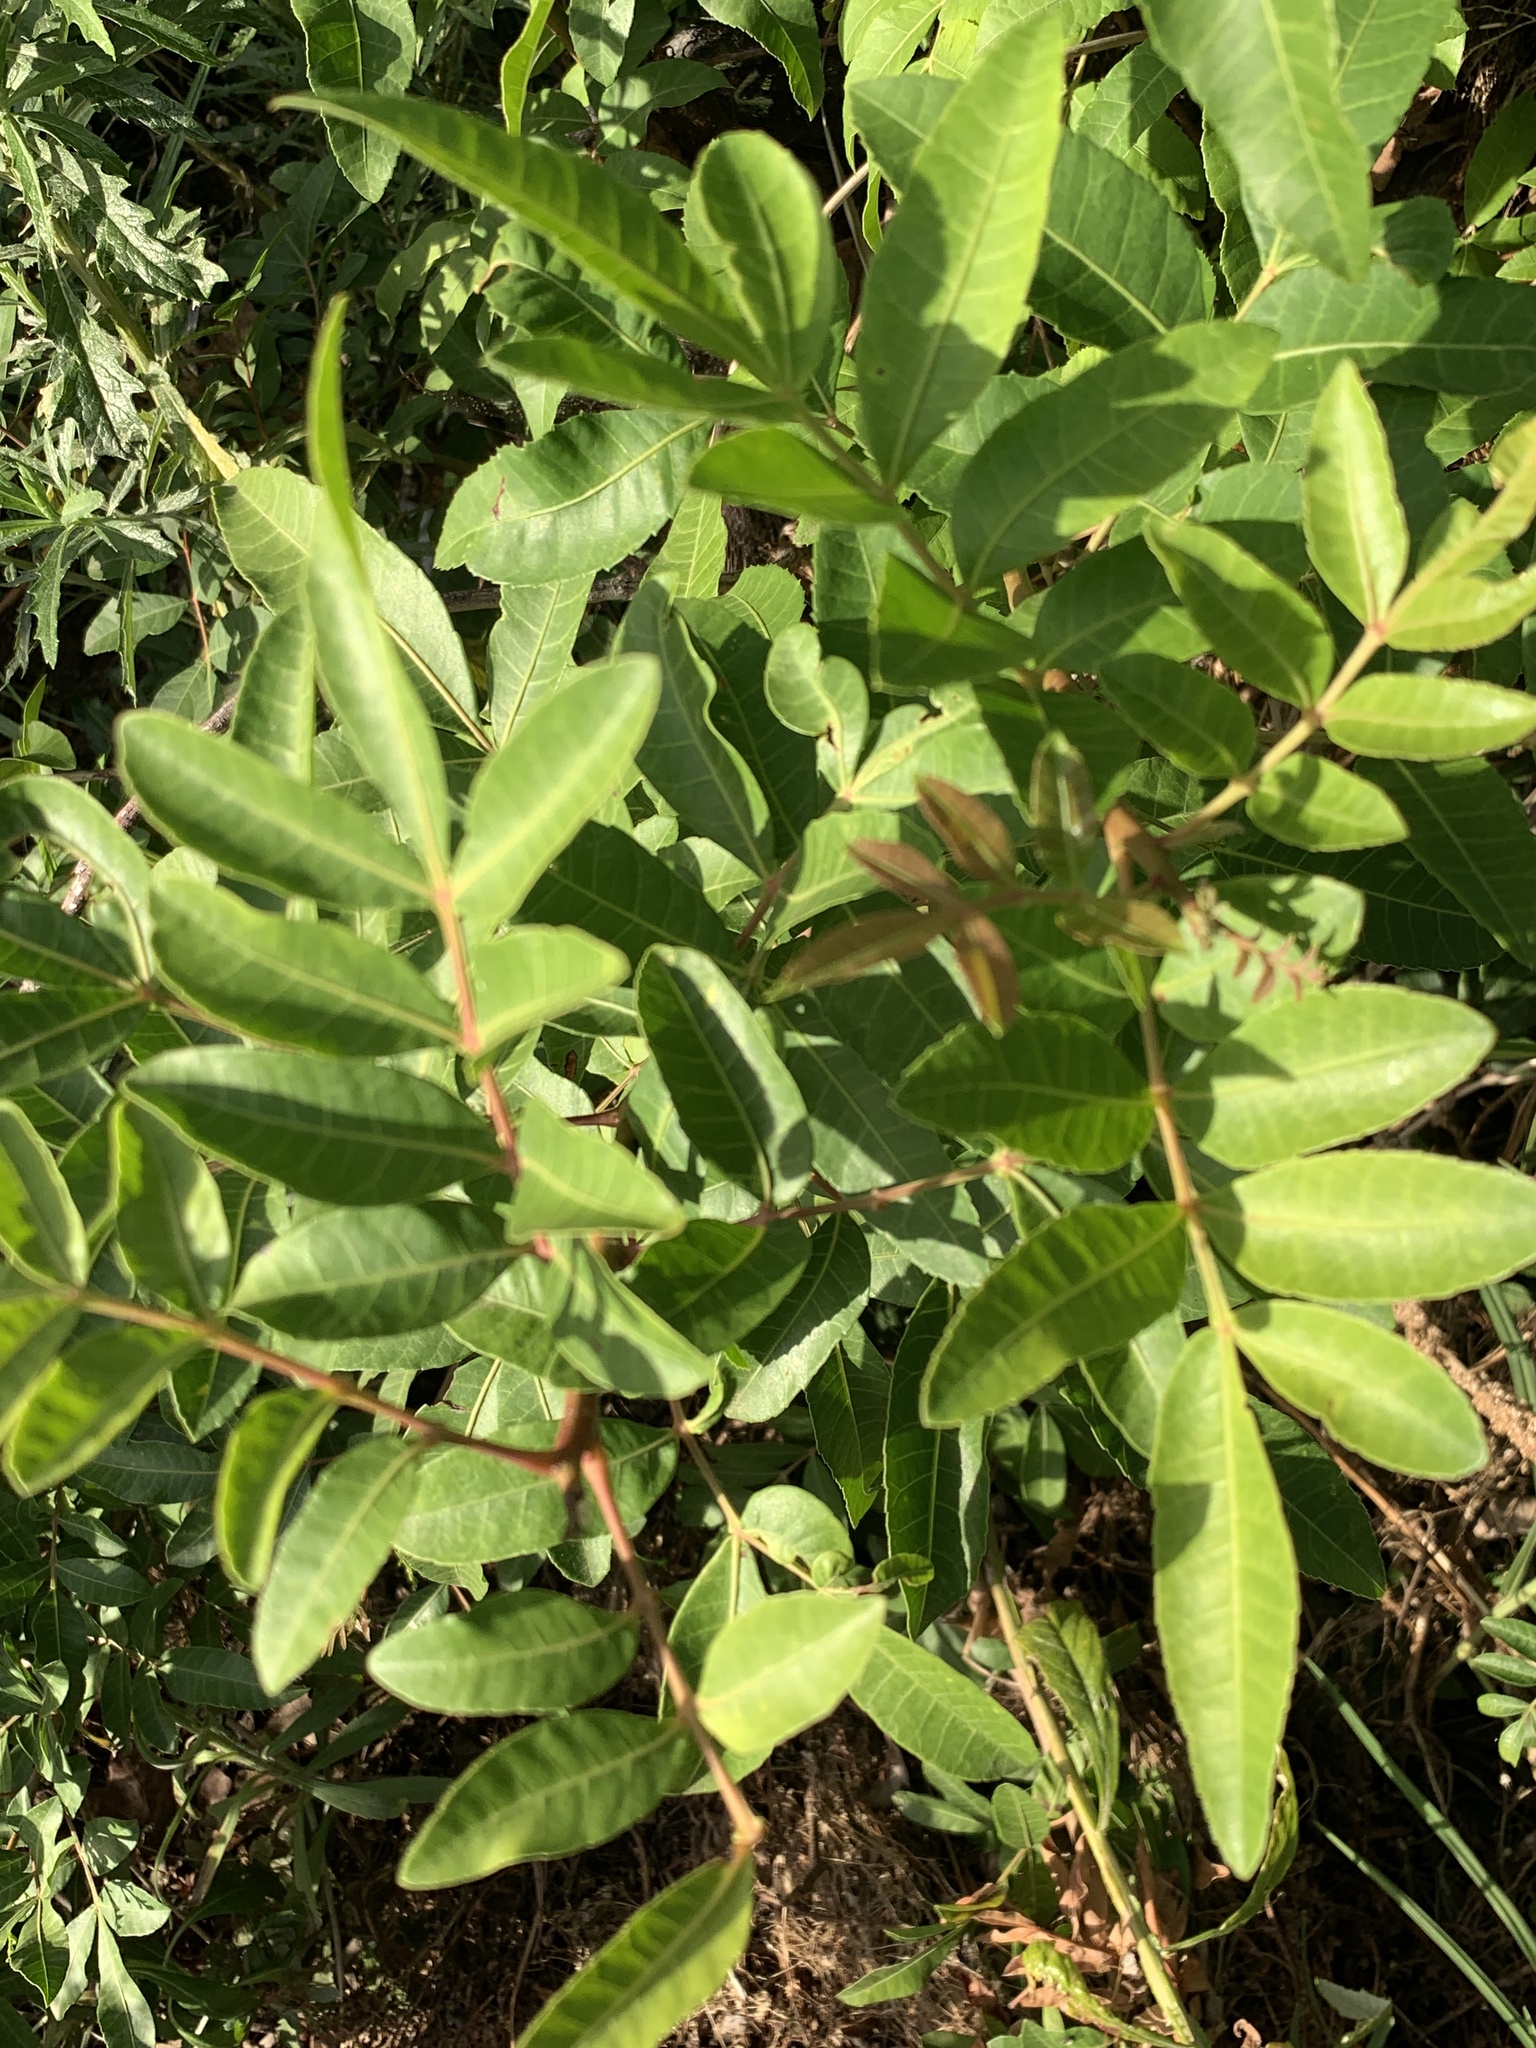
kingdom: Plantae
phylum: Tracheophyta
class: Magnoliopsida
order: Sapindales
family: Anacardiaceae
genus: Schinus
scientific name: Schinus terebinthifolia
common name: Brazilian peppertree
